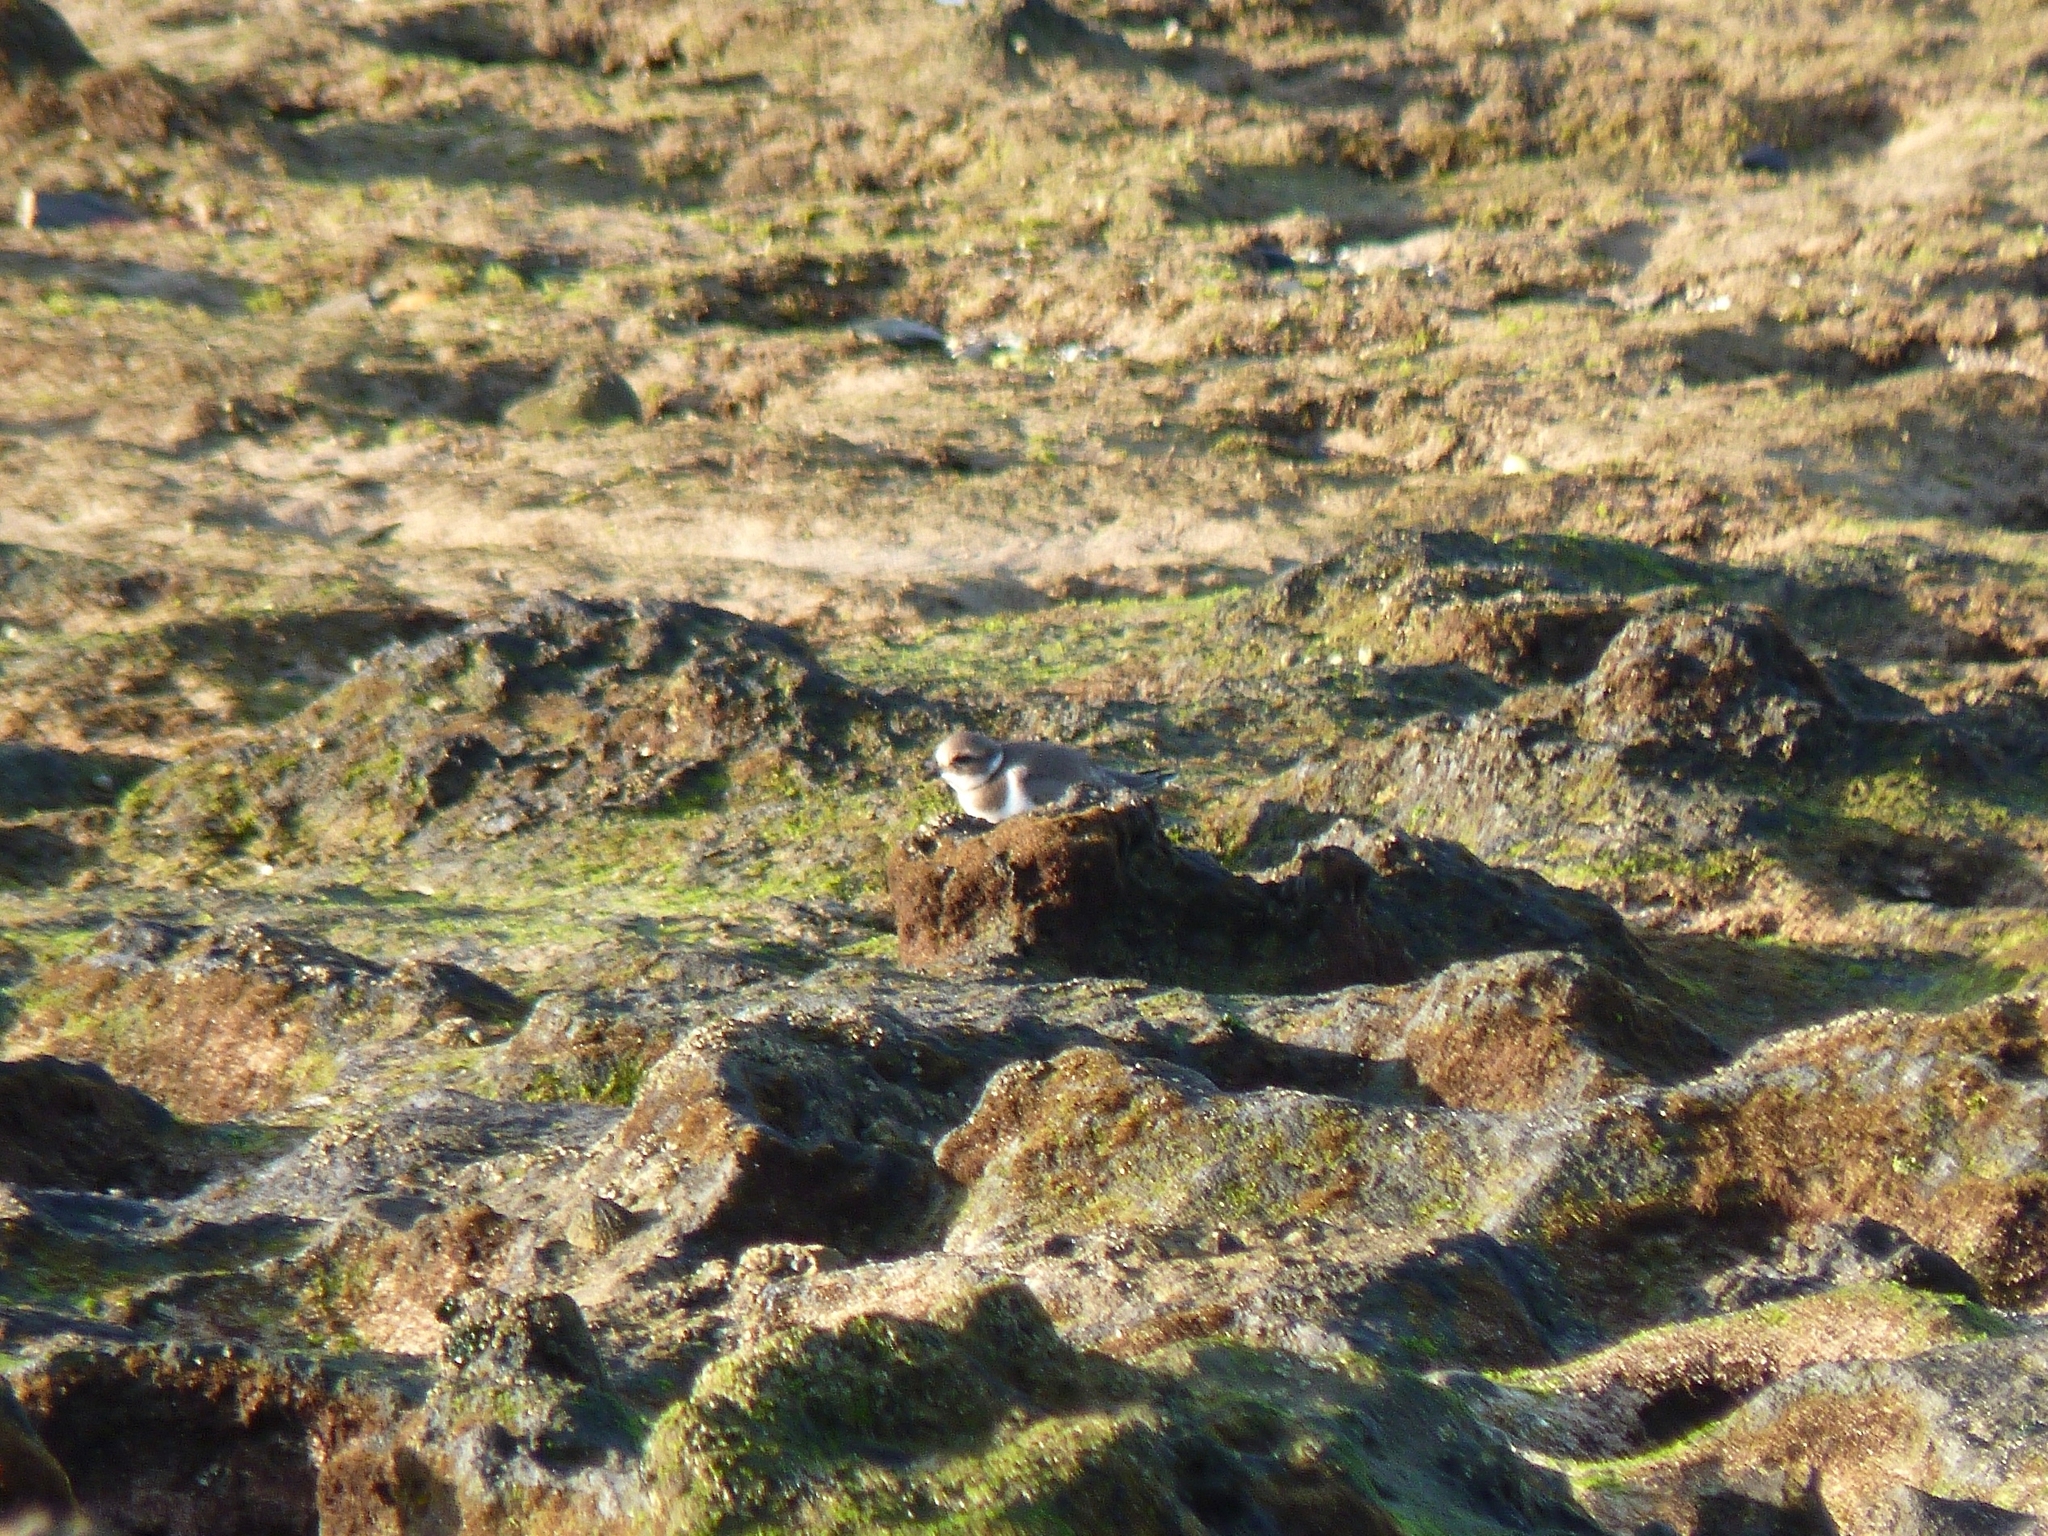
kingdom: Animalia
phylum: Chordata
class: Aves
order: Charadriiformes
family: Charadriidae
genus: Charadrius
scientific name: Charadrius hiaticula
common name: Common ringed plover
